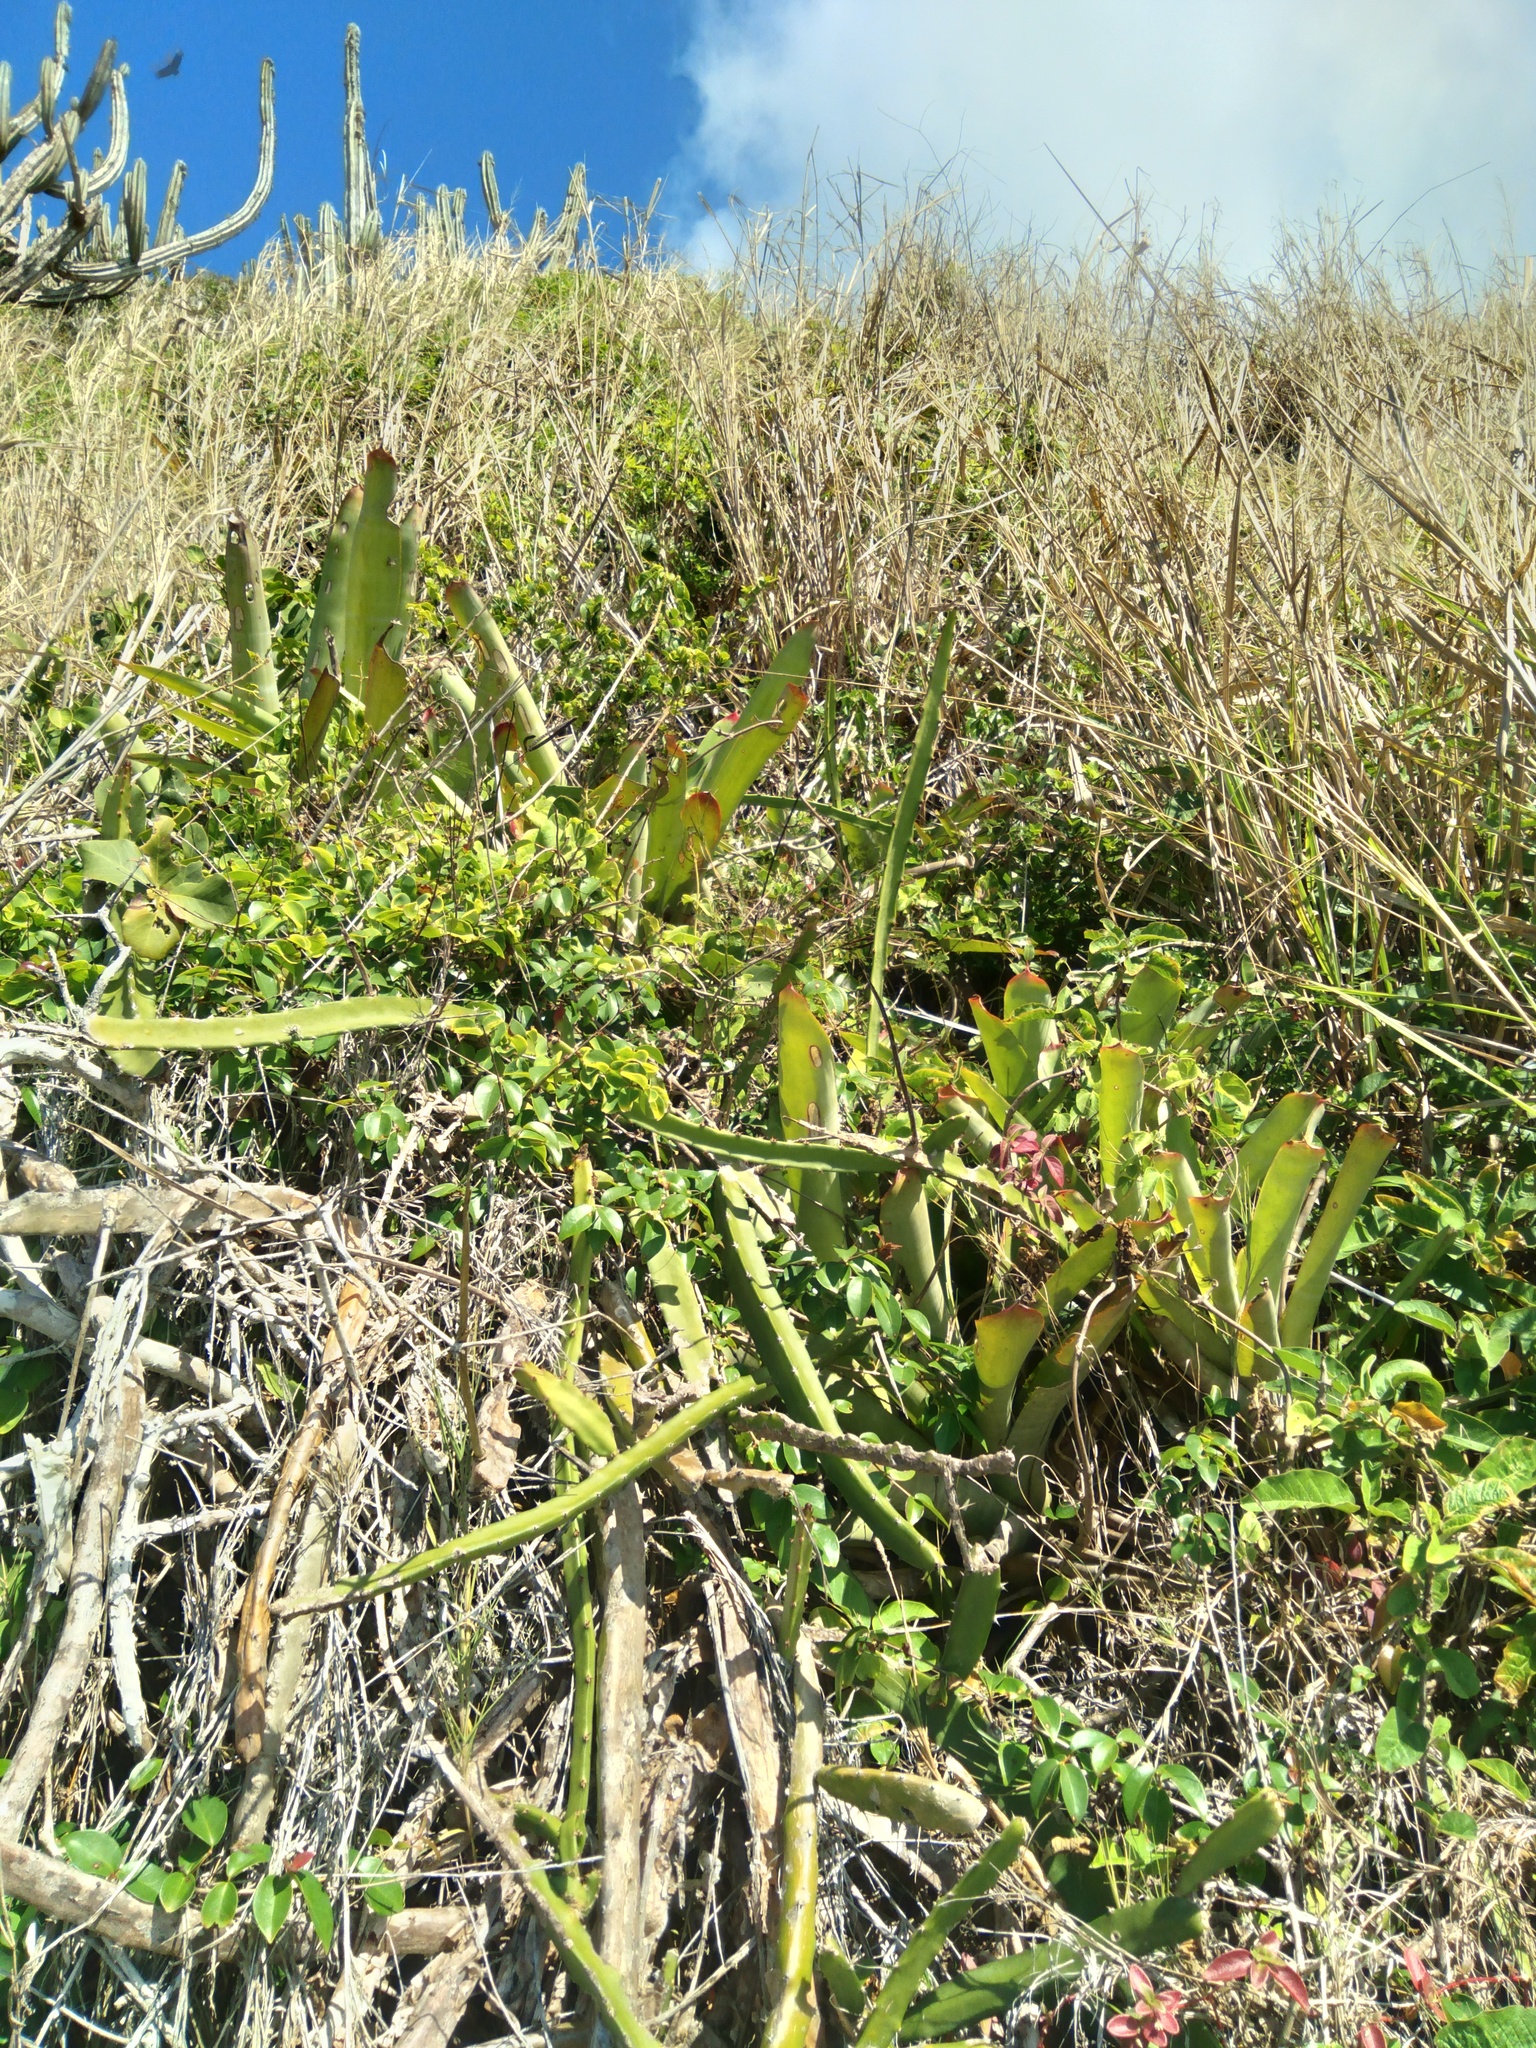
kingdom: Plantae
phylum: Tracheophyta
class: Liliopsida
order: Poales
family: Bromeliaceae
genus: Neoregelia
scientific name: Neoregelia cruenta
